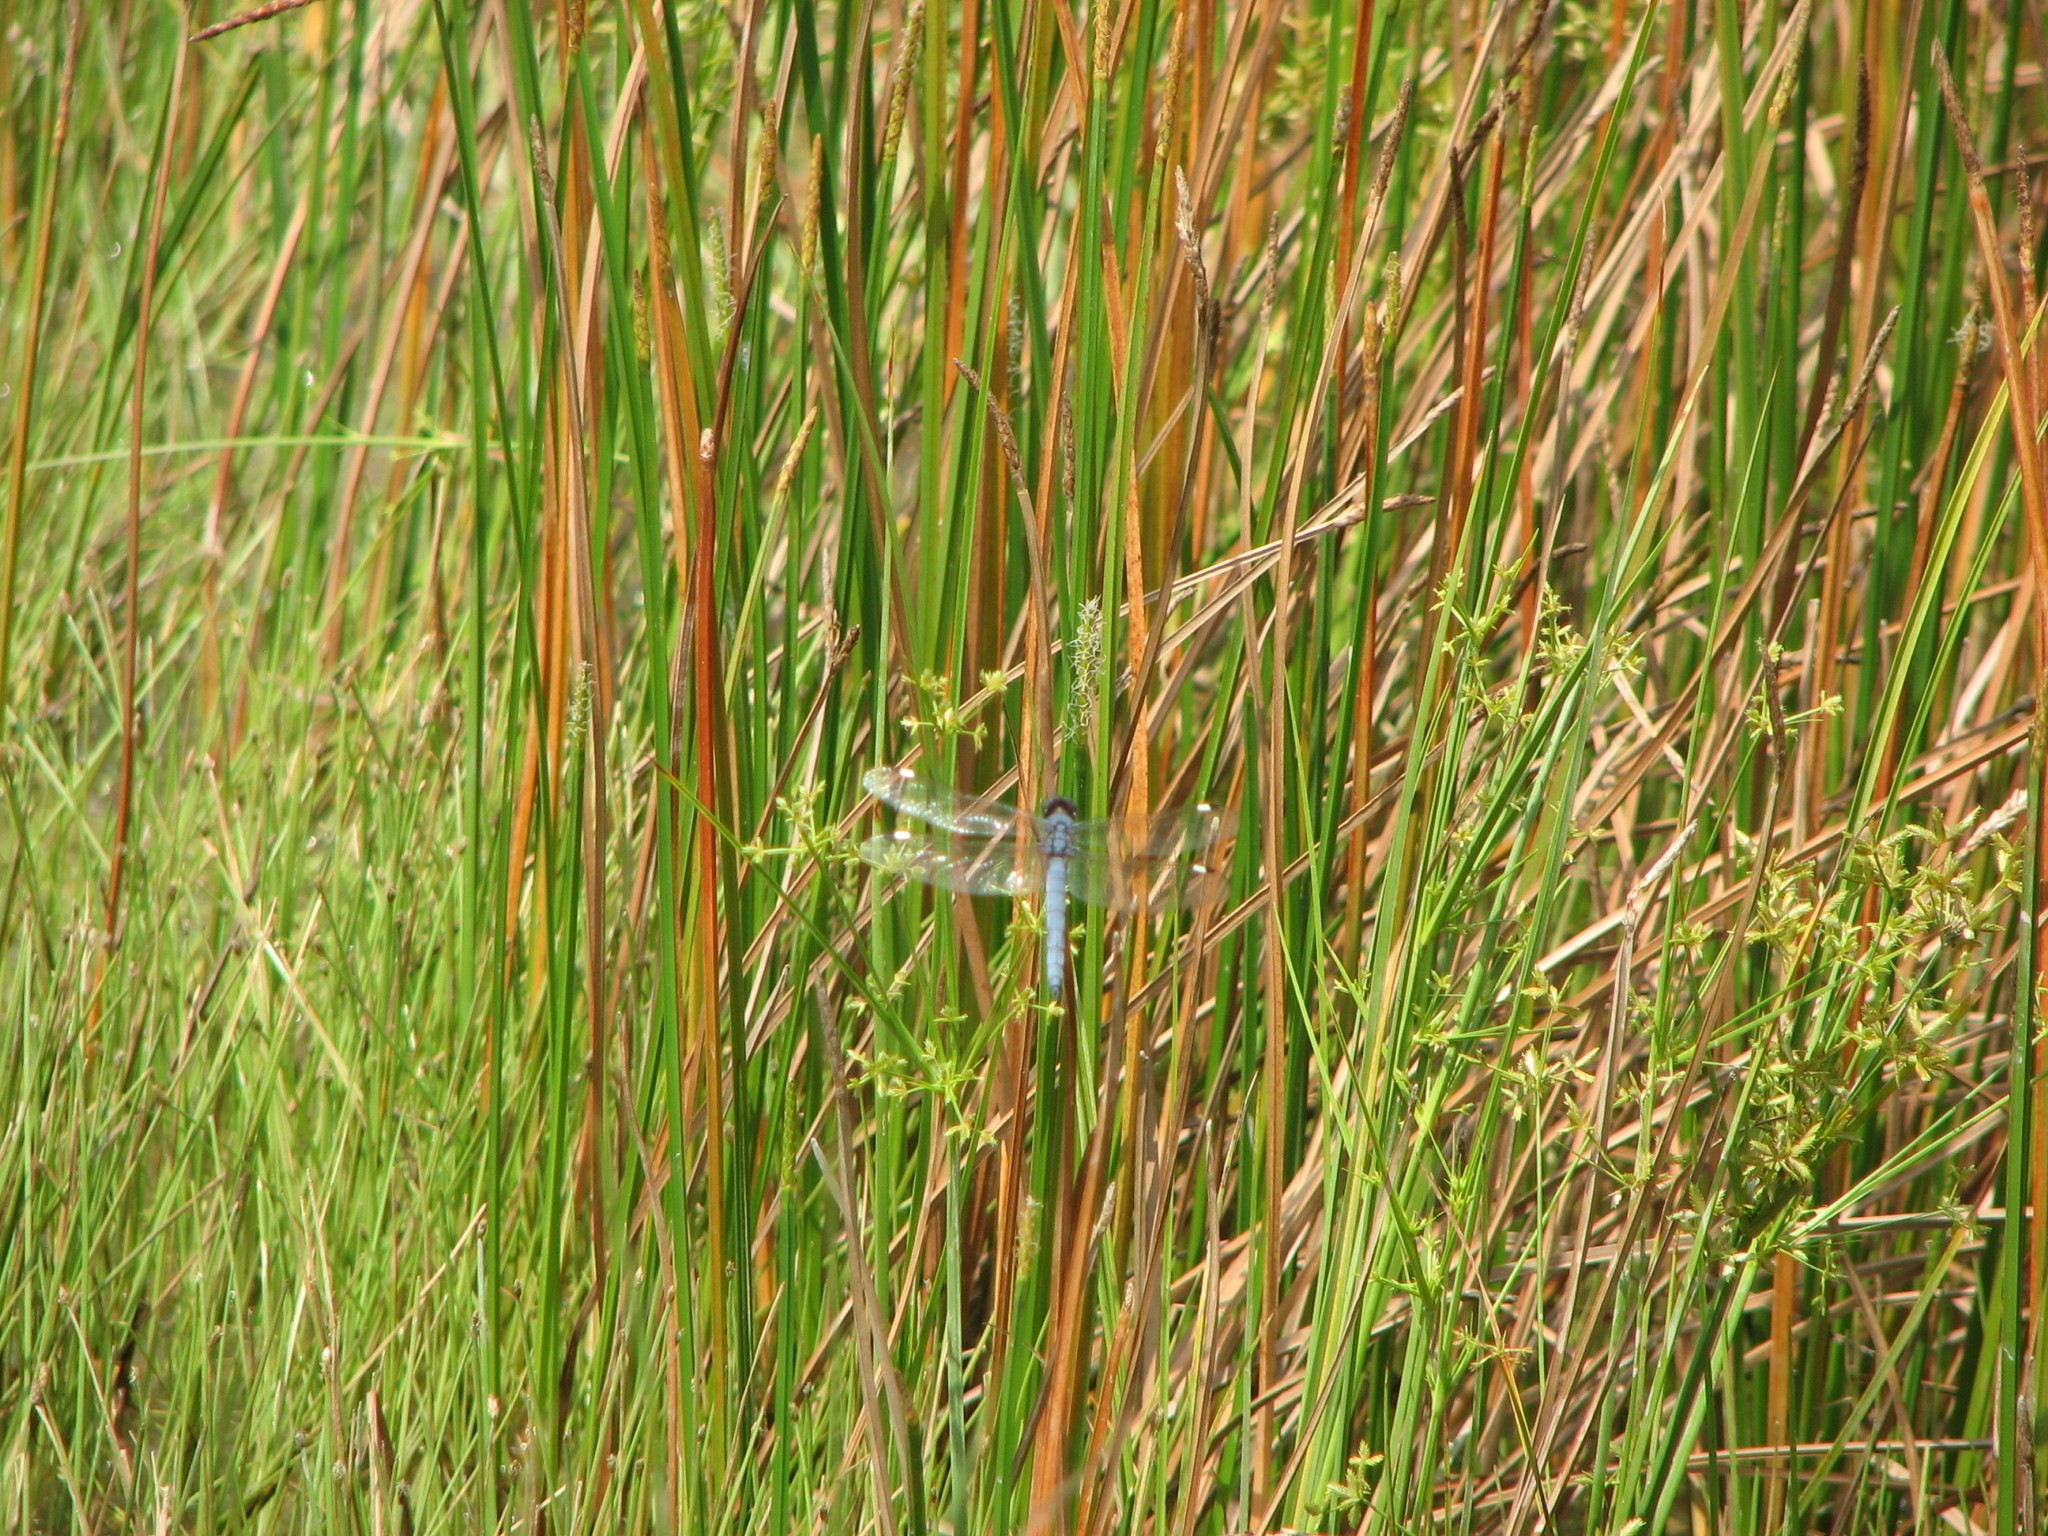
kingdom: Animalia
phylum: Arthropoda
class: Insecta
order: Odonata
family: Libellulidae
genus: Libellula
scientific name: Libellula cyanea
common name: Spangled skimmer
